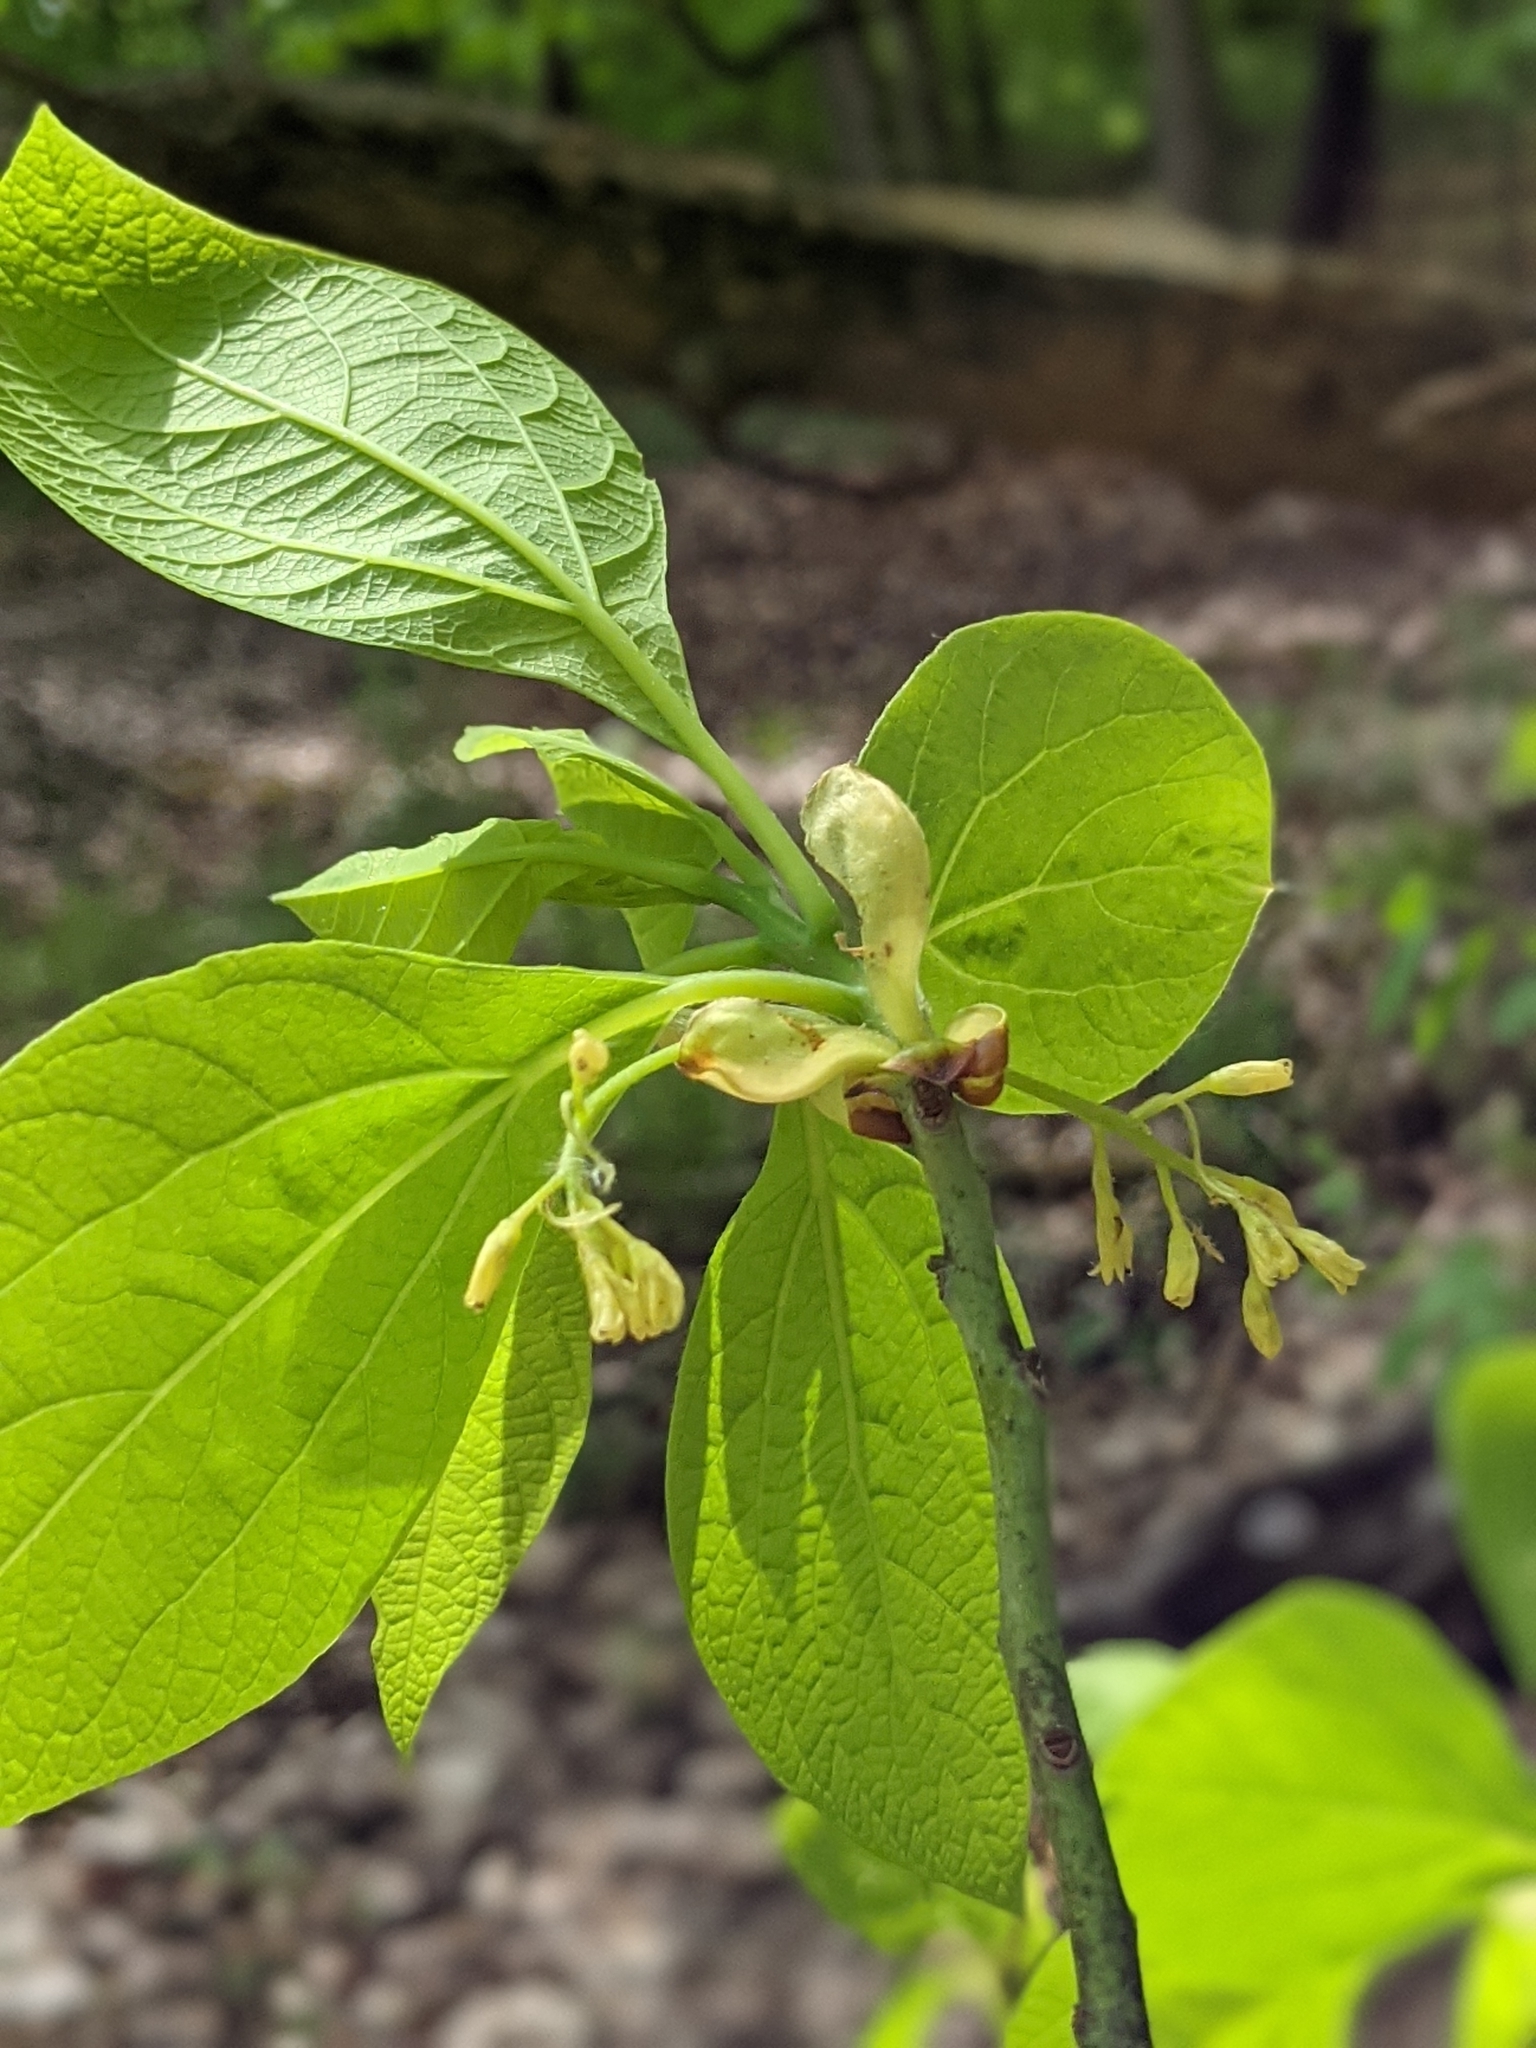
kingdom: Plantae
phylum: Tracheophyta
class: Magnoliopsida
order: Laurales
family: Lauraceae
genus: Sassafras
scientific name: Sassafras albidum
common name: Sassafras
